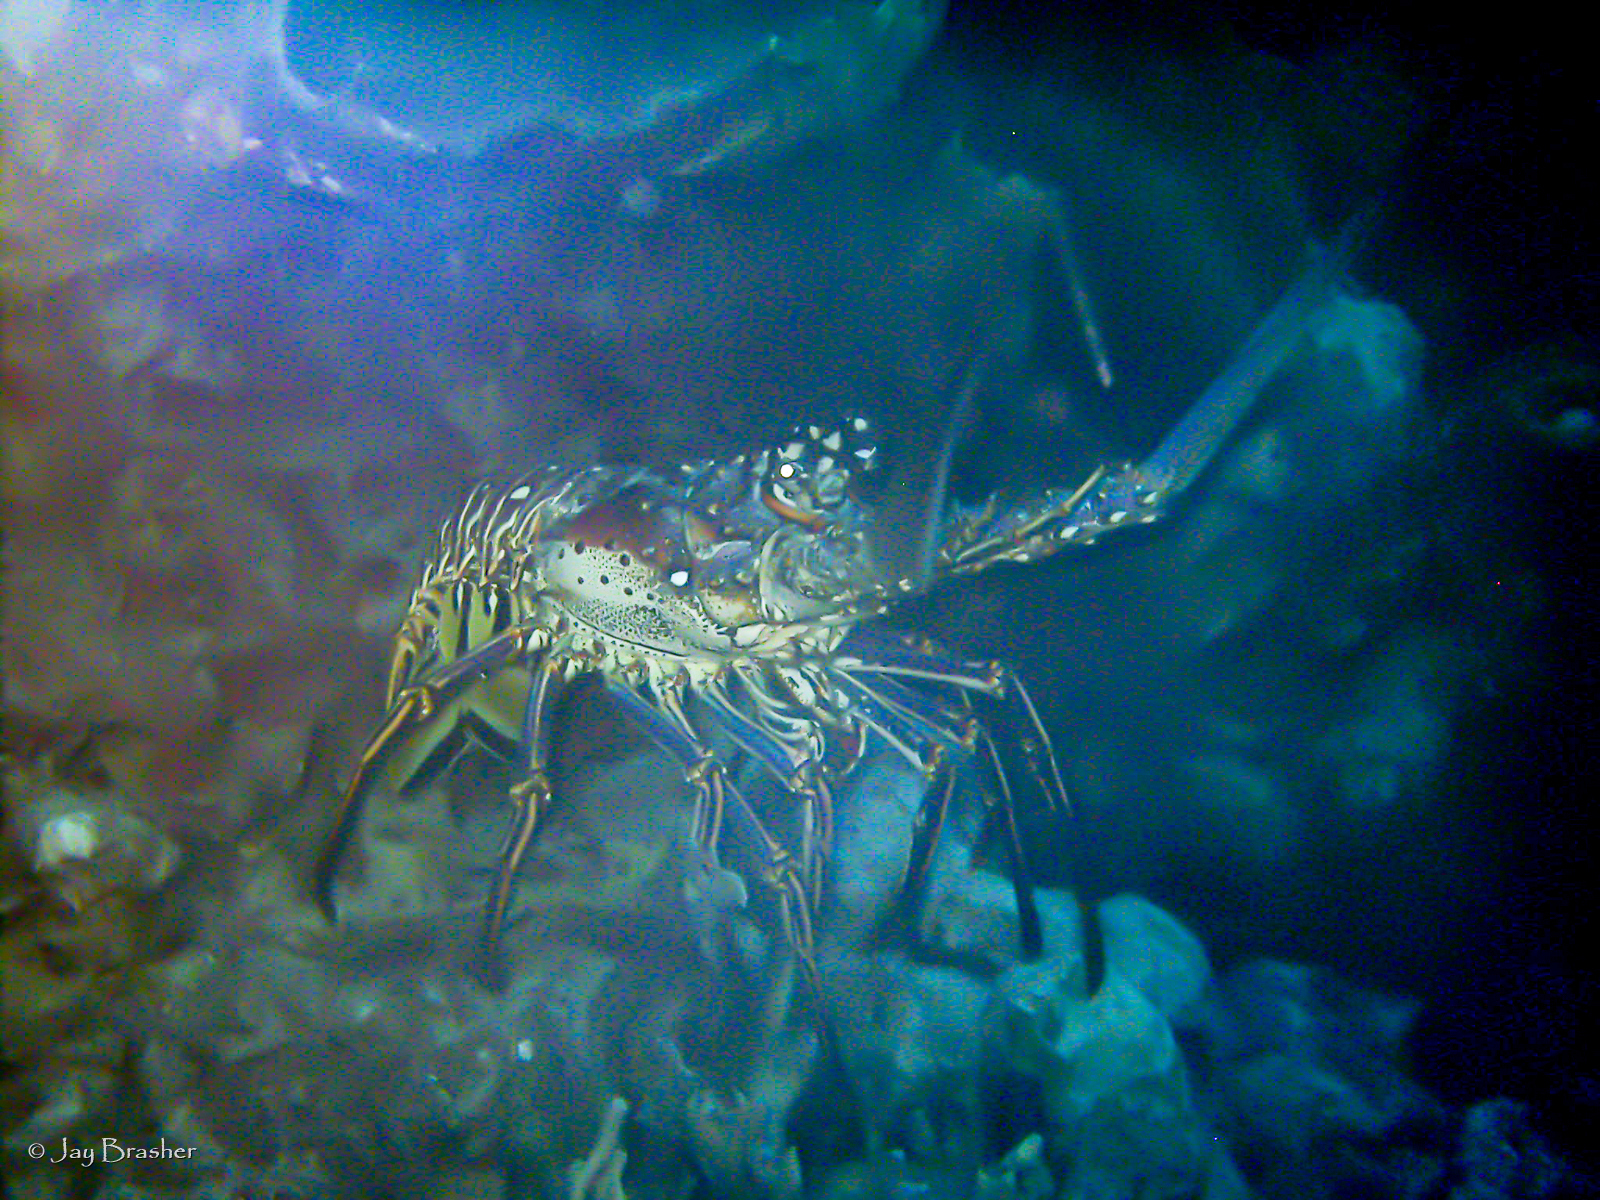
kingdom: Animalia
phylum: Arthropoda
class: Malacostraca
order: Decapoda
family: Palinuridae
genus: Panulirus
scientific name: Panulirus argus
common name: Caribbean spiny lobster
